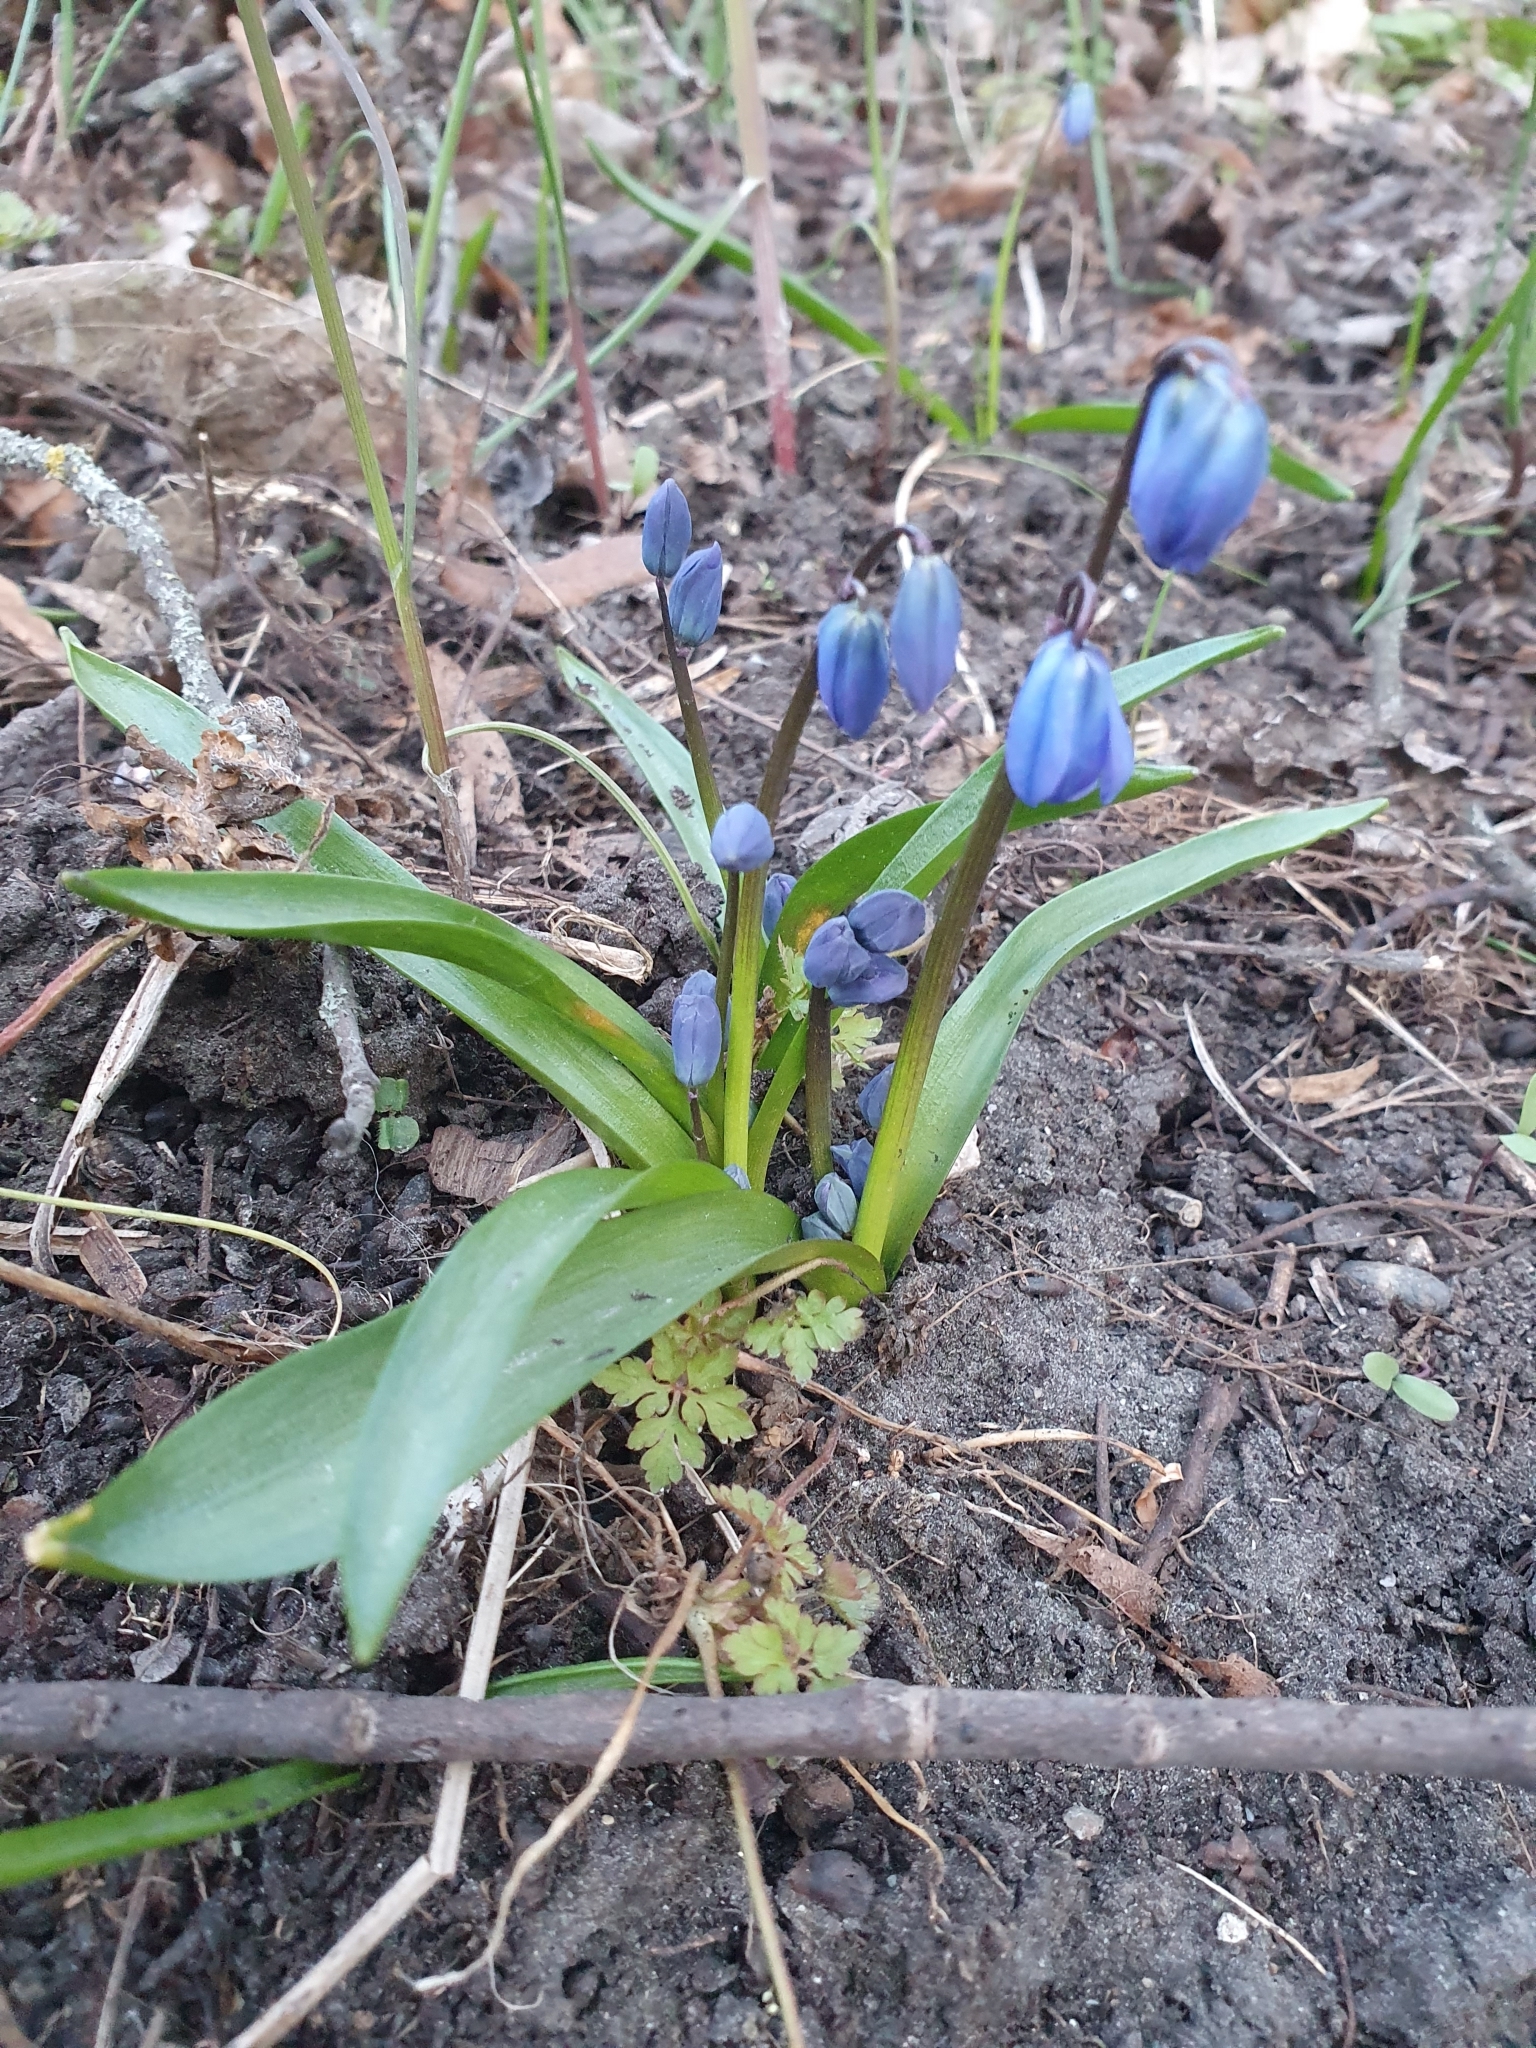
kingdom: Plantae
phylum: Tracheophyta
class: Liliopsida
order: Asparagales
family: Asparagaceae
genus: Scilla
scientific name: Scilla siberica
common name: Siberian squill
